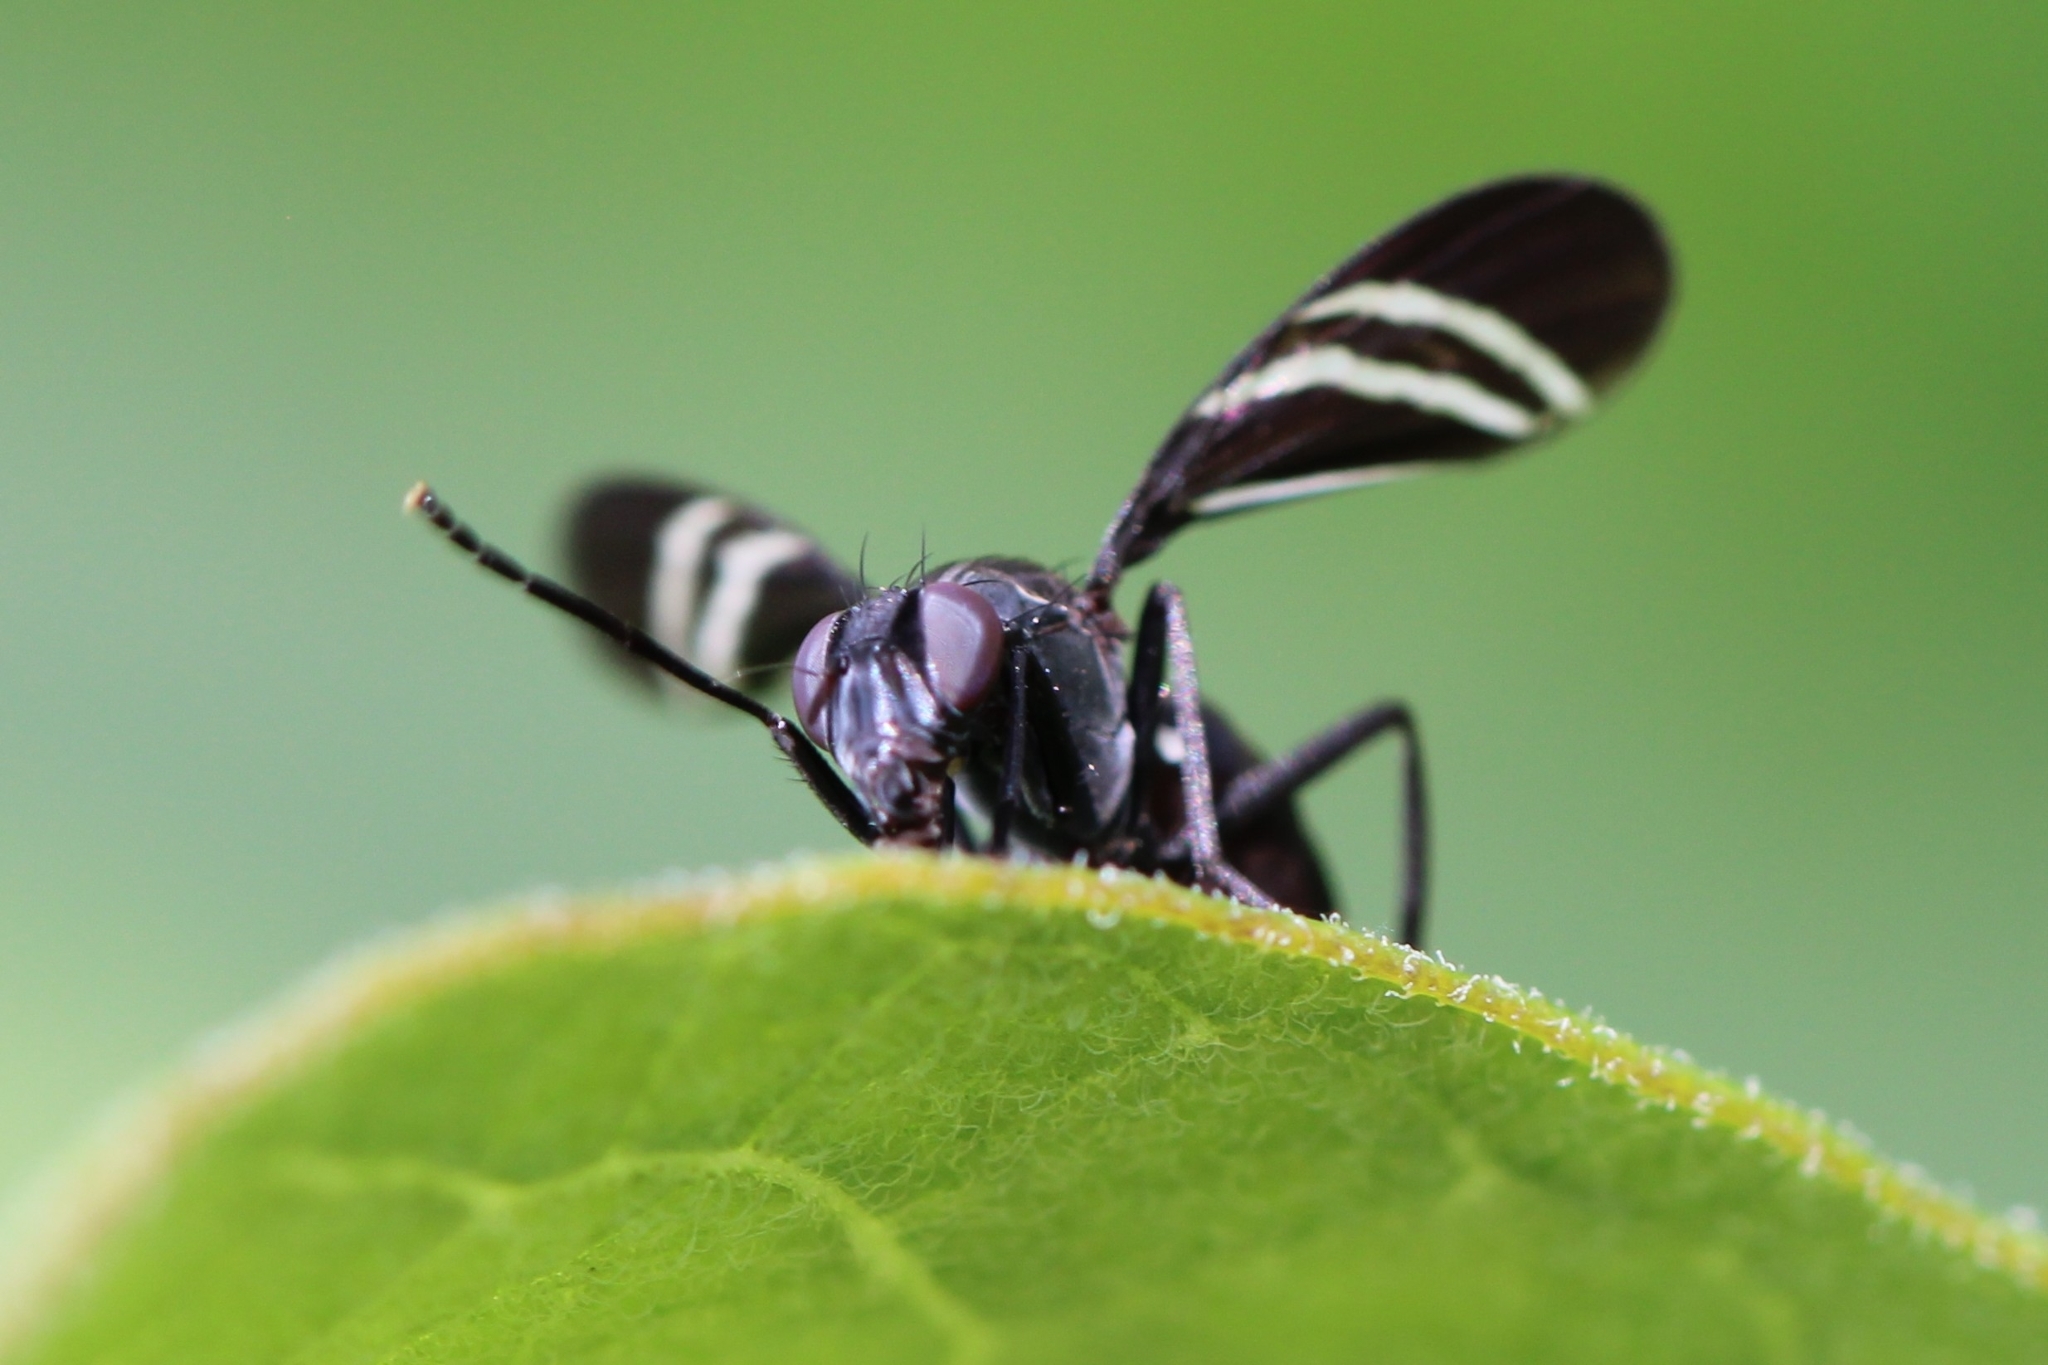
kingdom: Animalia
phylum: Arthropoda
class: Insecta
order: Diptera
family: Ulidiidae
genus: Tritoxa
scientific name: Tritoxa flexa
